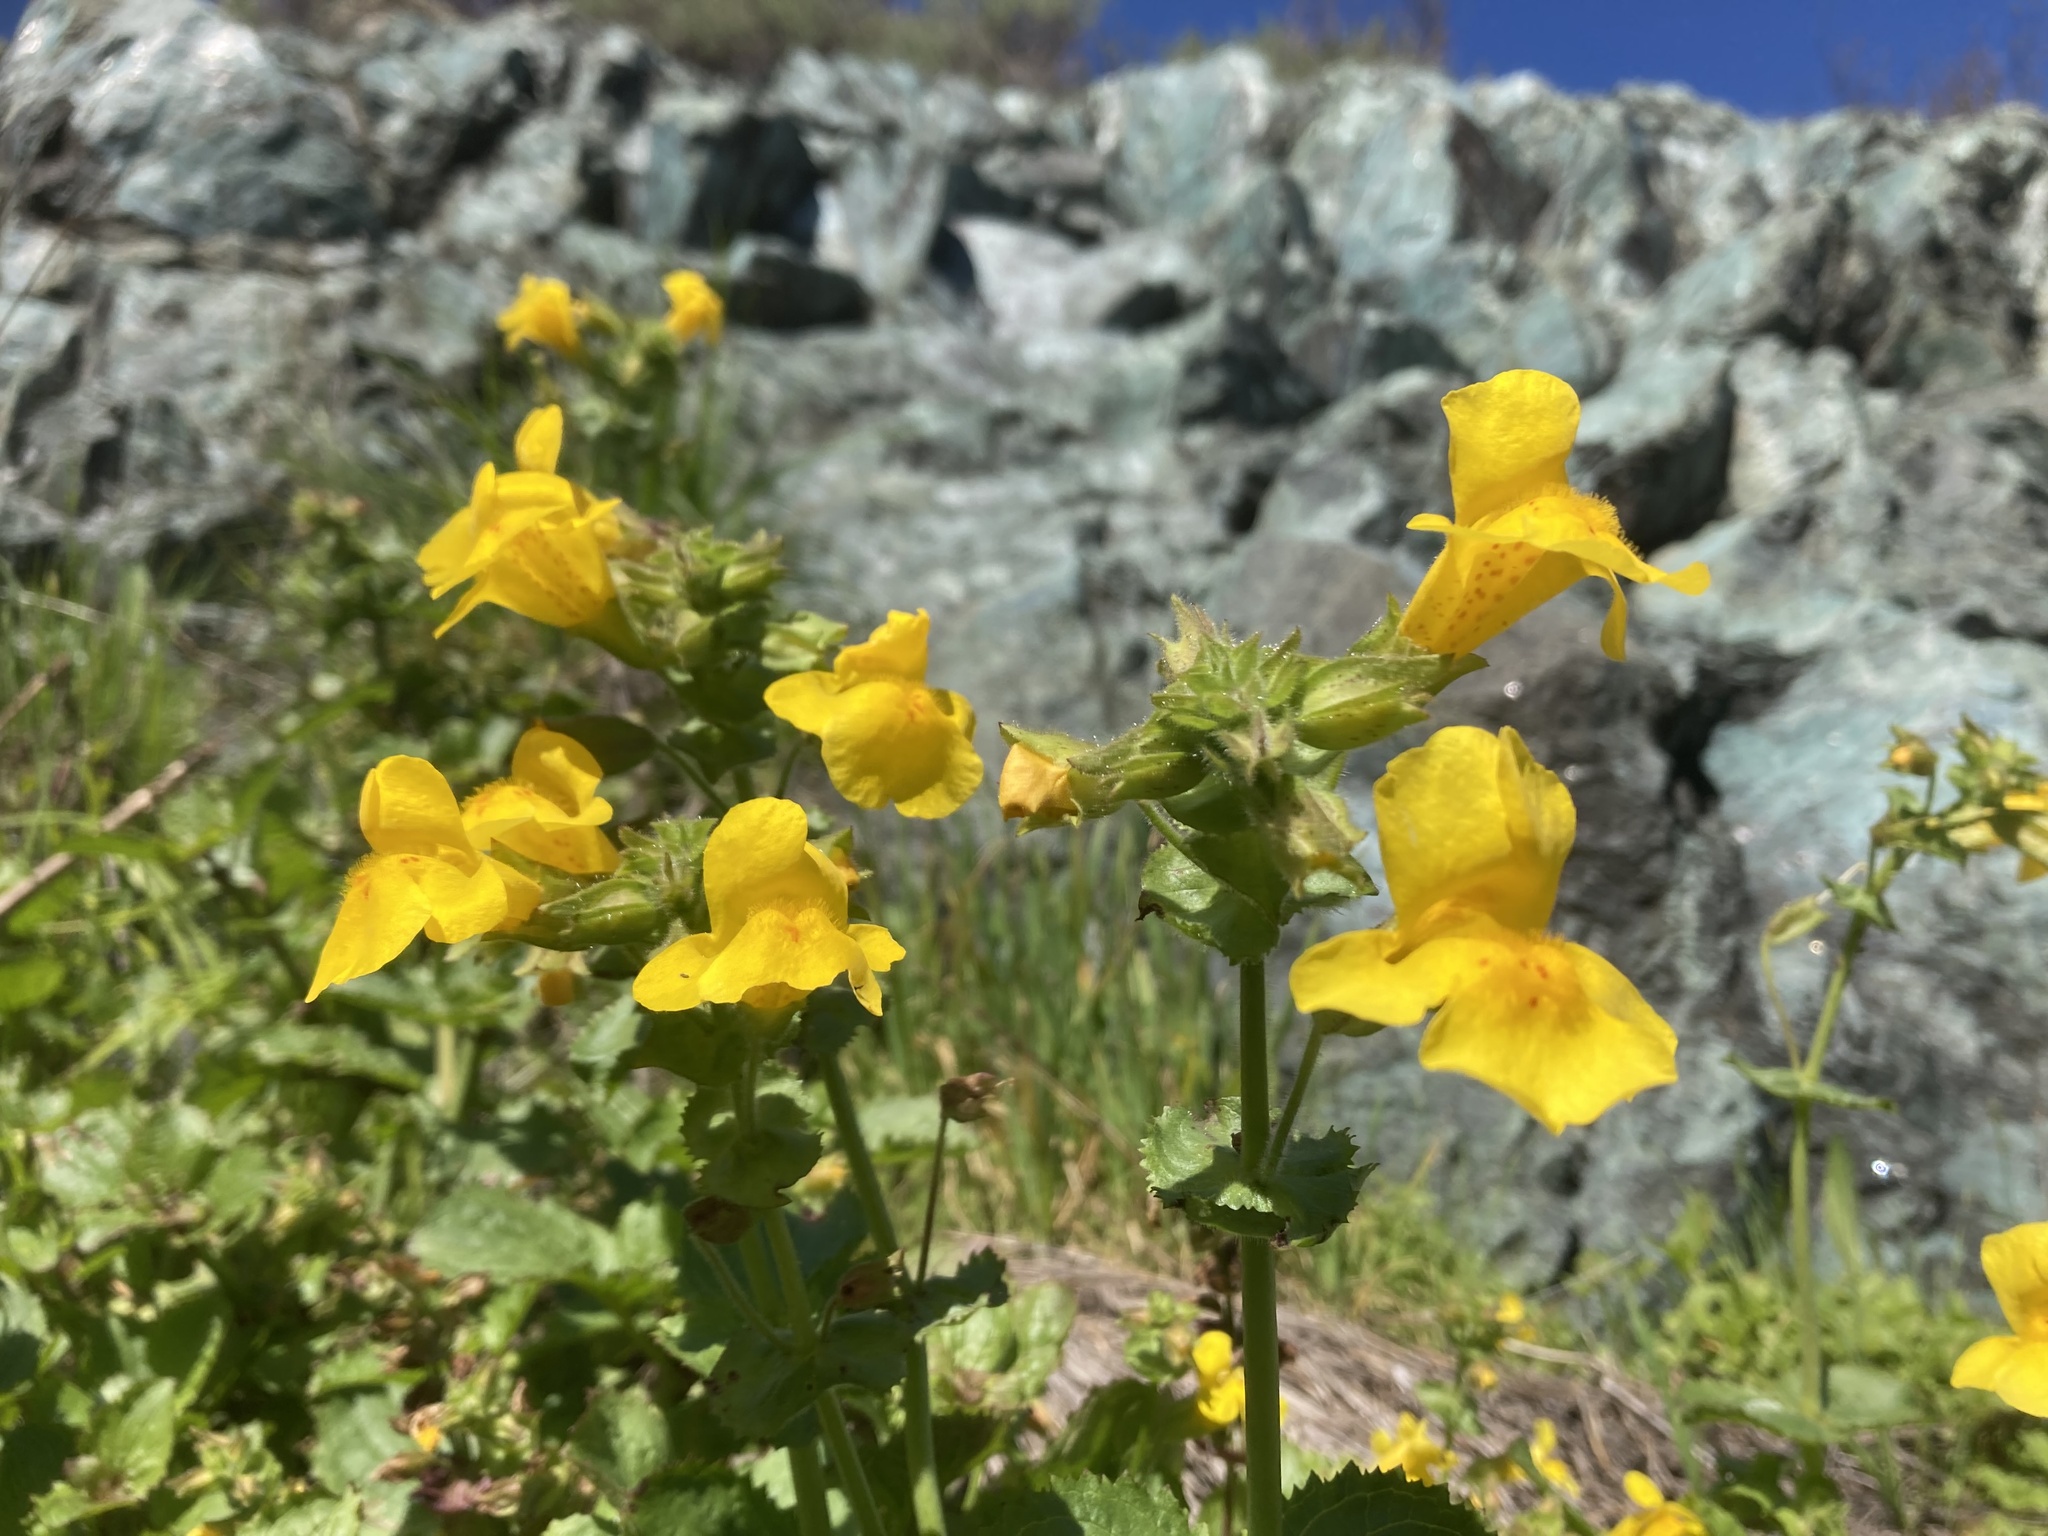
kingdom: Plantae
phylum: Tracheophyta
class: Magnoliopsida
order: Lamiales
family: Phrymaceae
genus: Erythranthe
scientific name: Erythranthe guttata
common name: Monkeyflower
